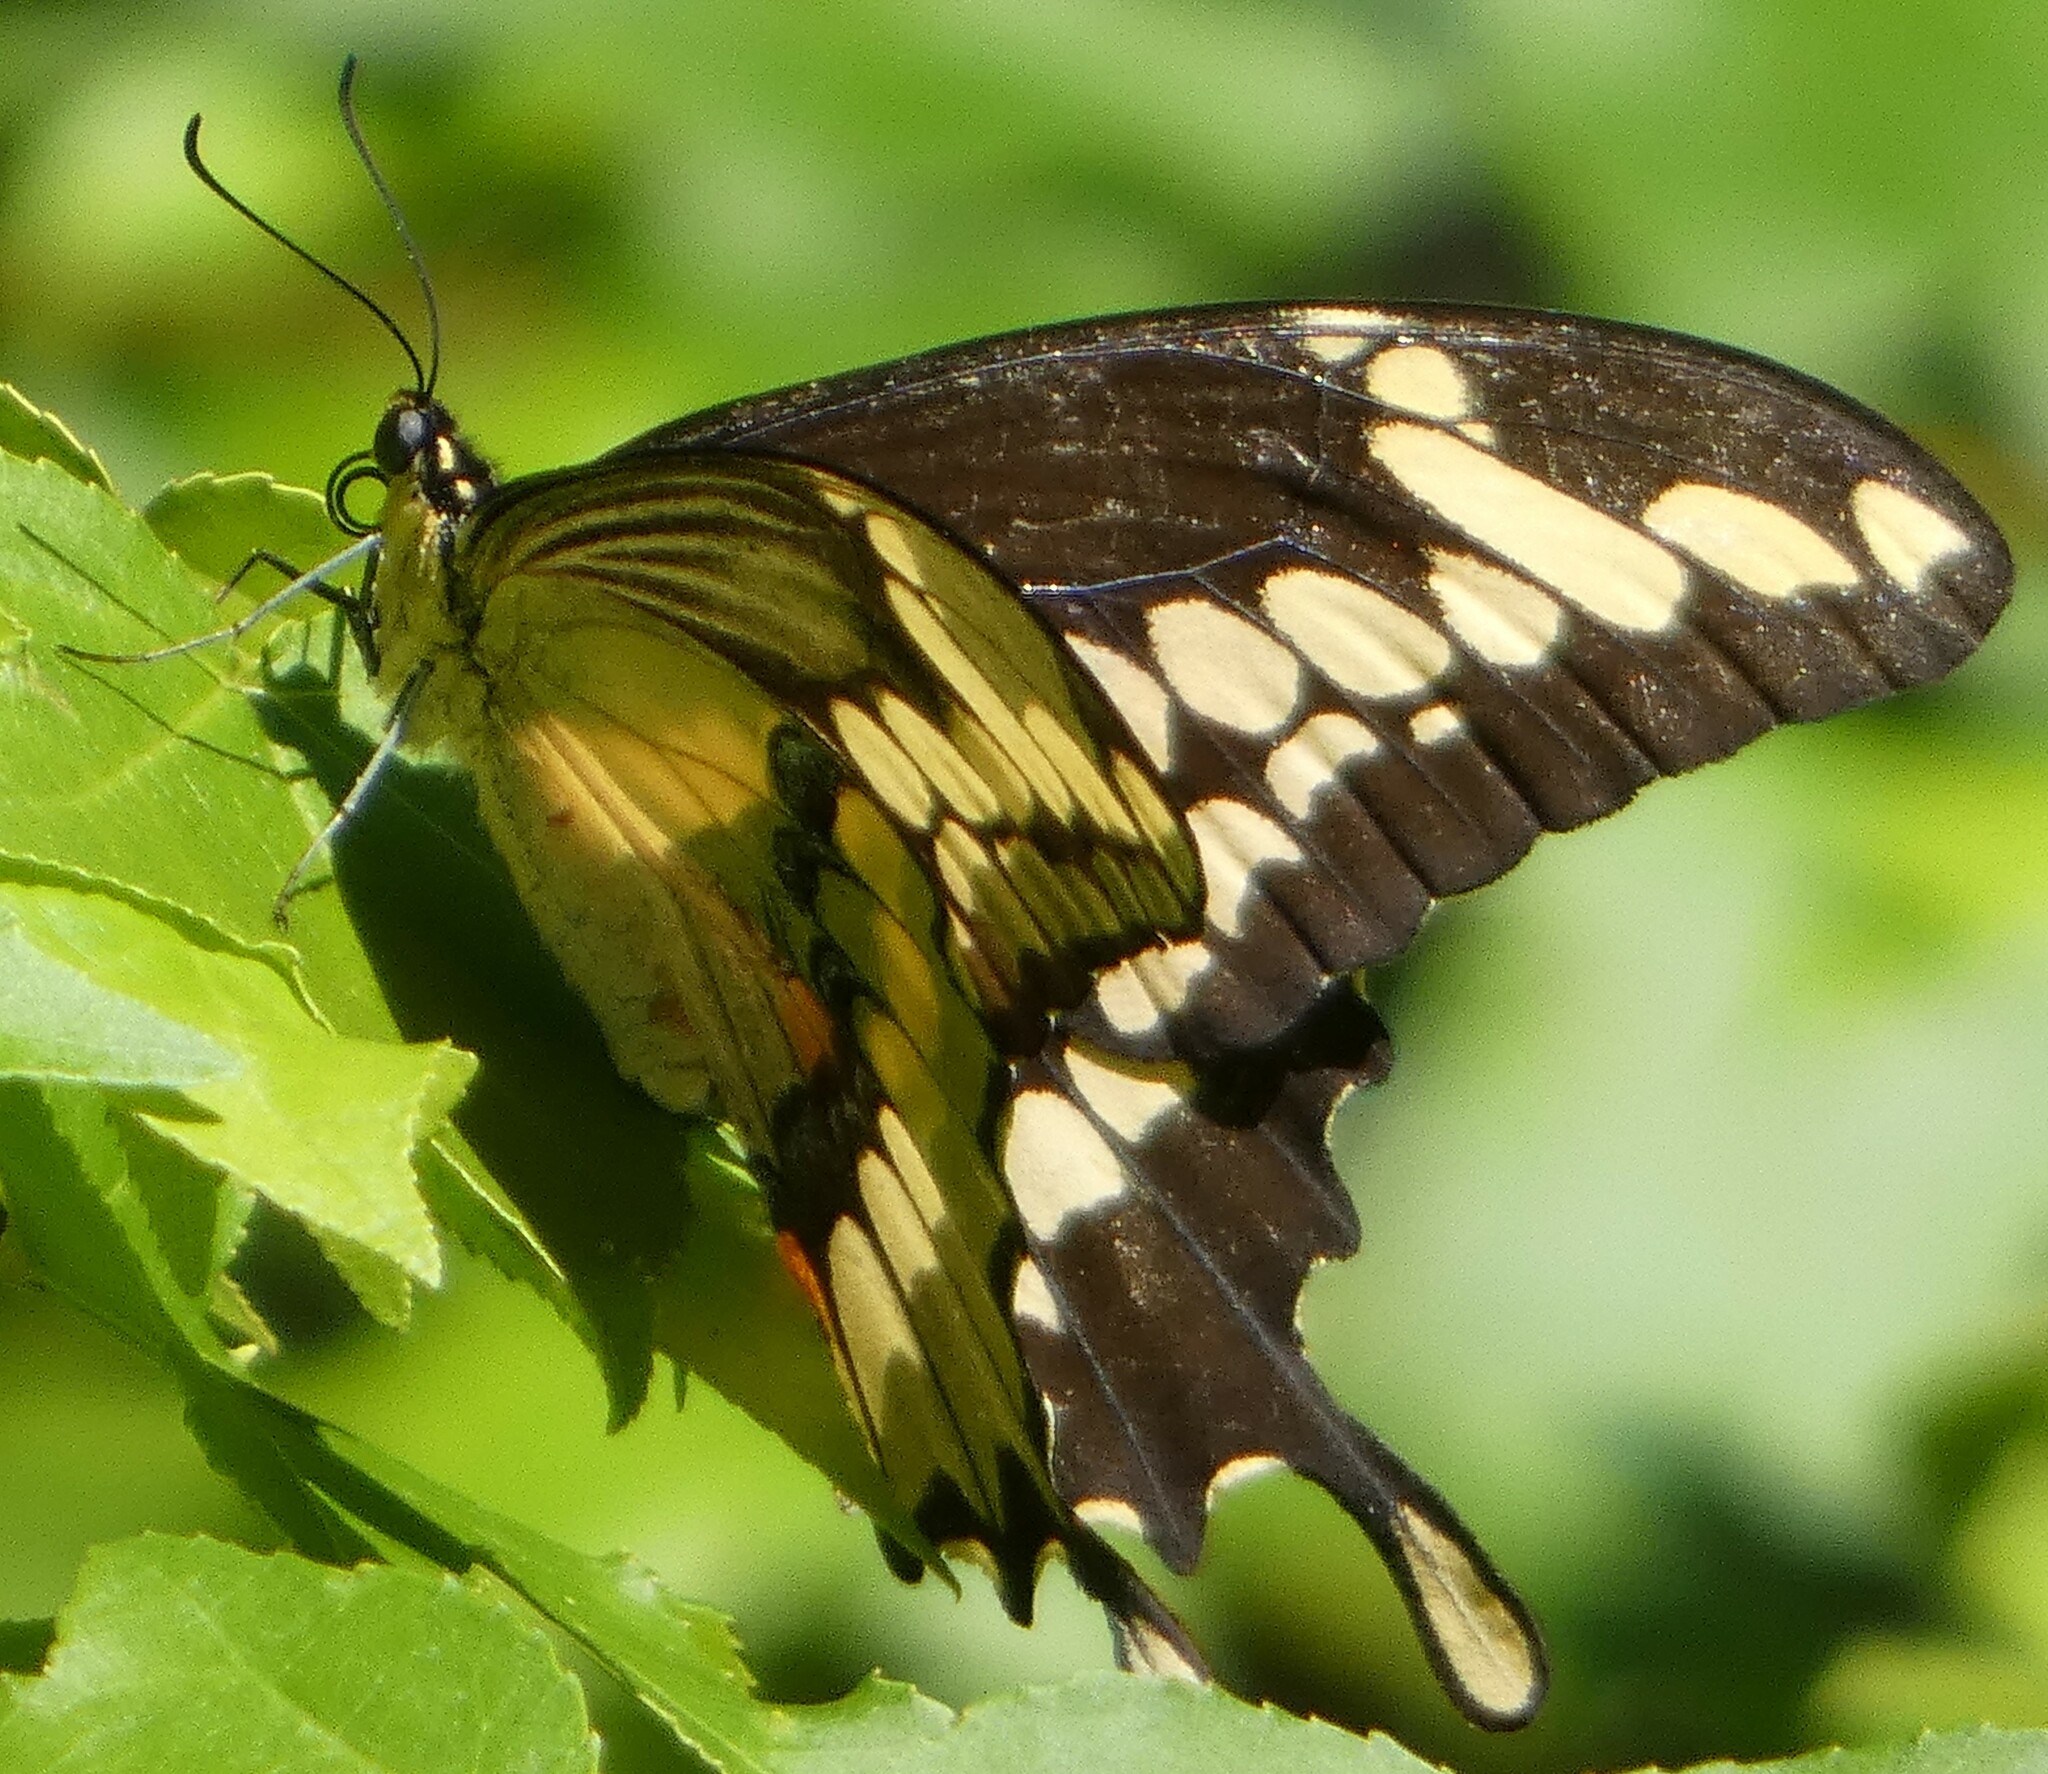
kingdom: Animalia
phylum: Arthropoda
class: Insecta
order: Lepidoptera
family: Papilionidae
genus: Papilio
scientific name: Papilio cresphontes
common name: Giant swallowtail
